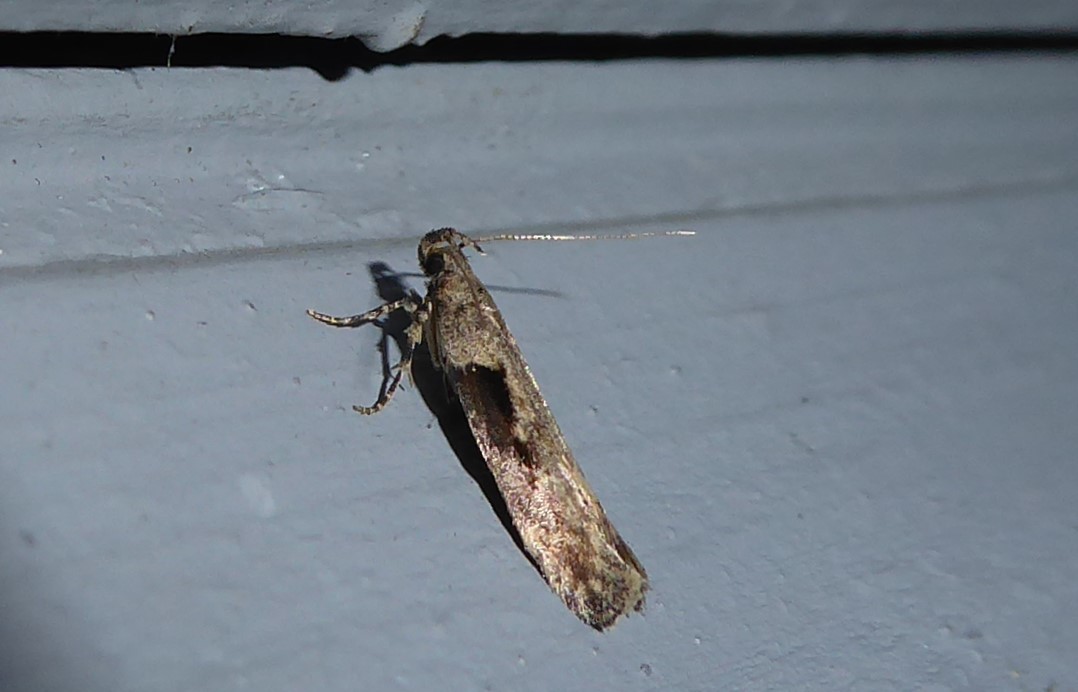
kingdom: Animalia
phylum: Arthropoda
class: Insecta
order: Lepidoptera
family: Gelechiidae
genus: Symmetrischema
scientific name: Symmetrischema tangolias
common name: Moth
